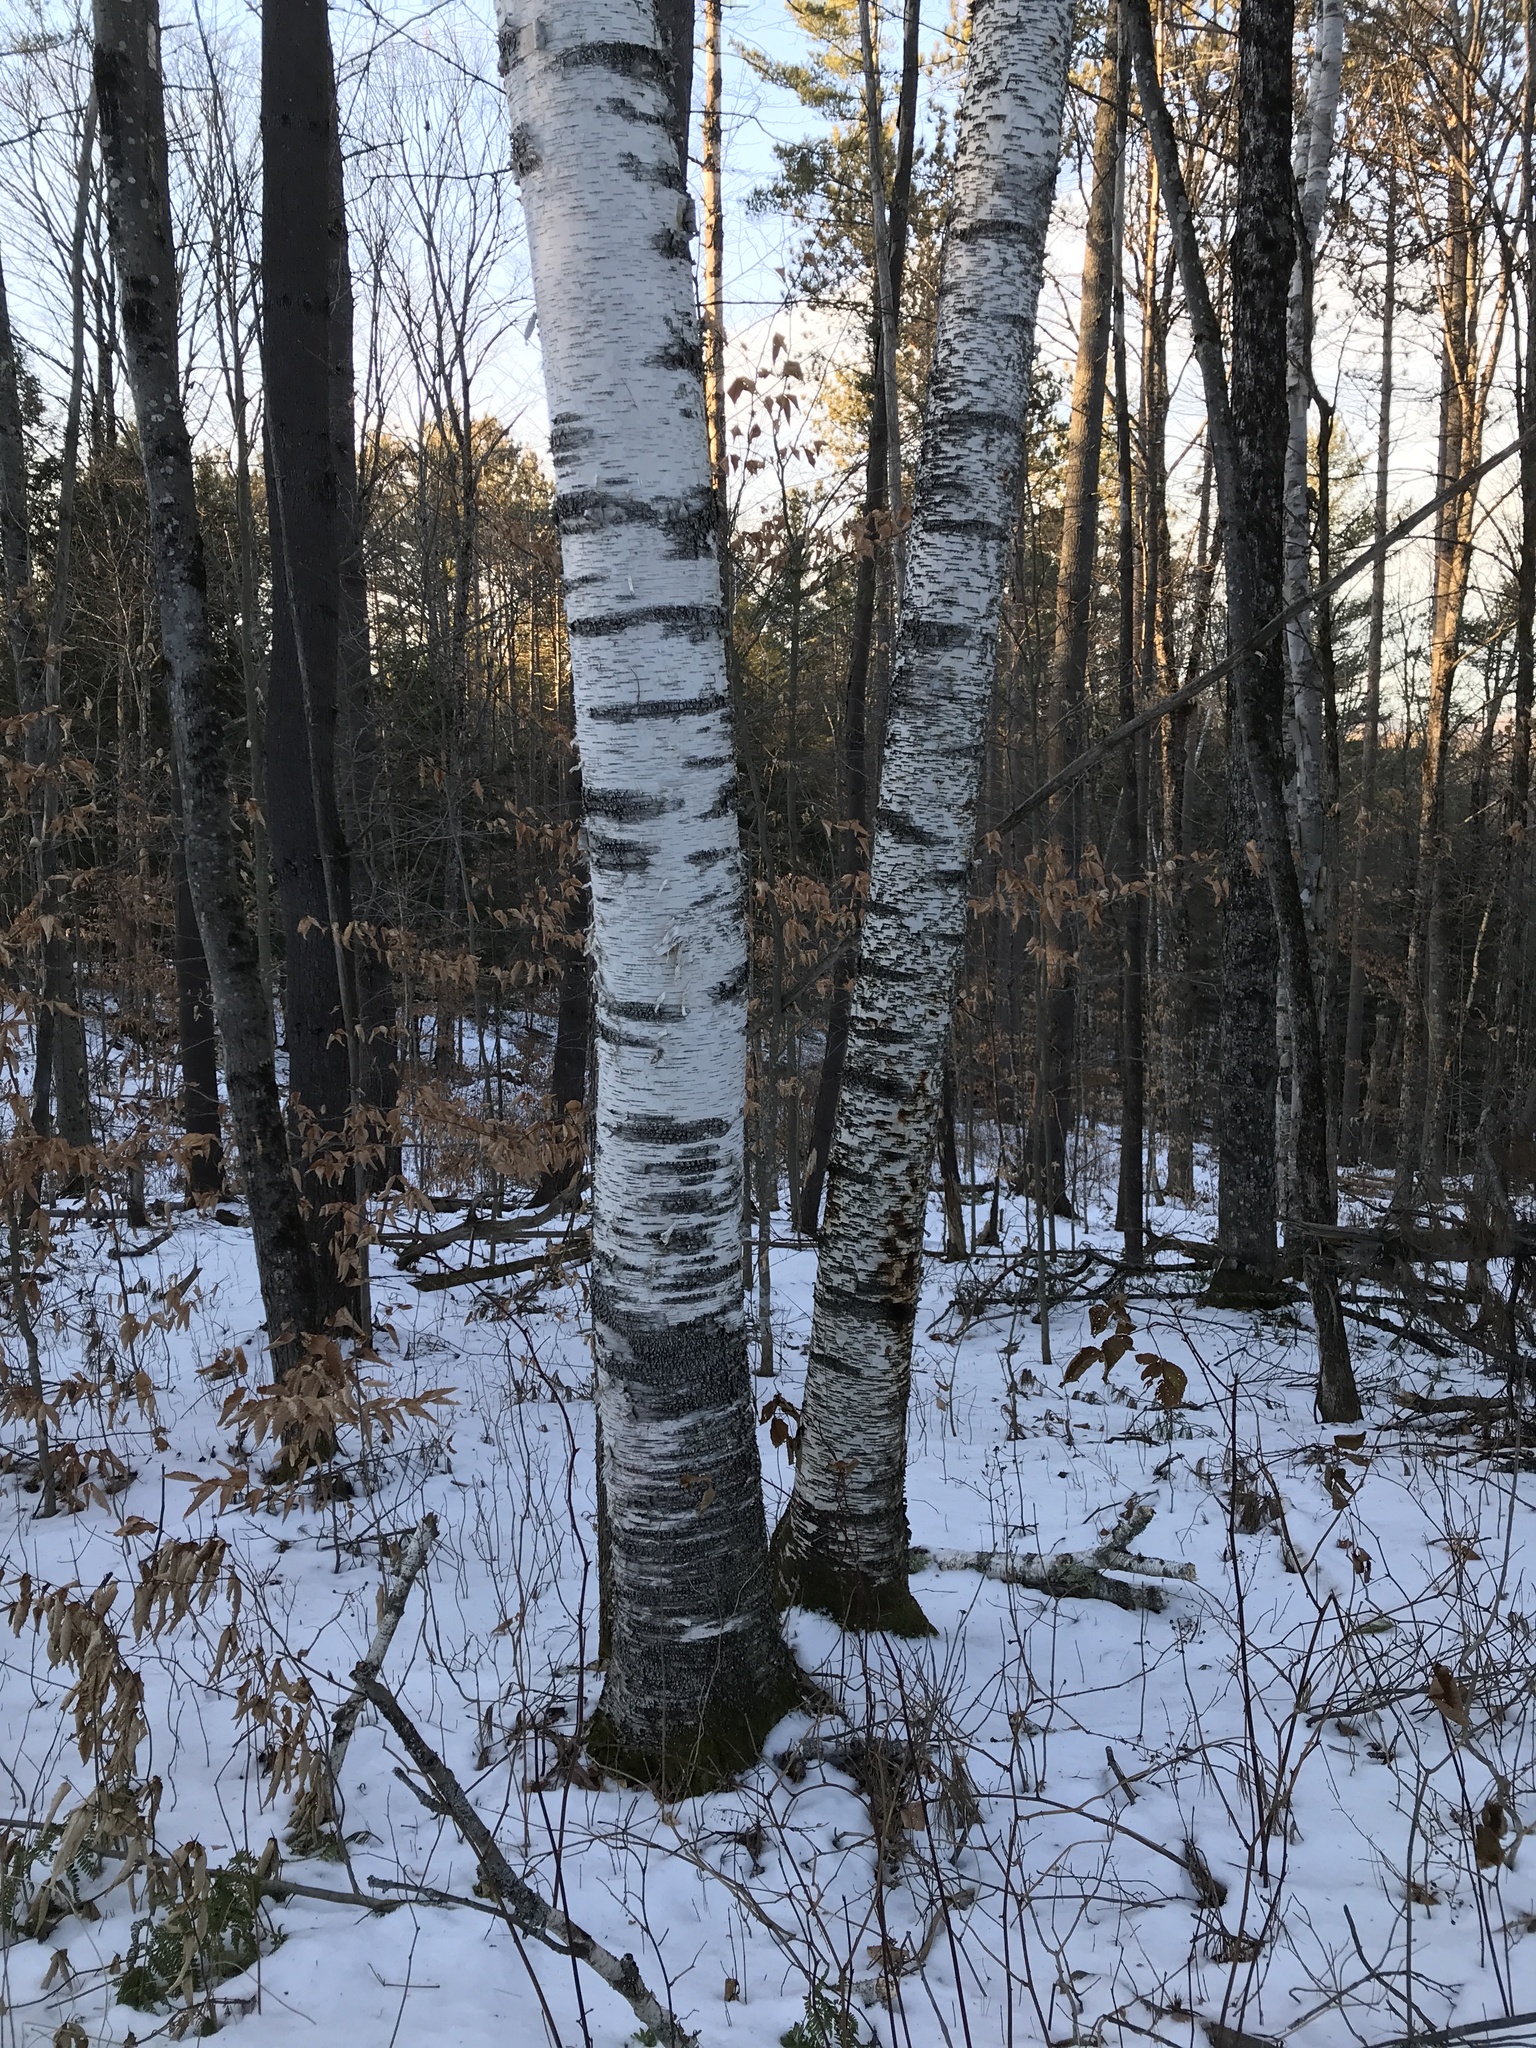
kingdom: Plantae
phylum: Tracheophyta
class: Magnoliopsida
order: Fagales
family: Betulaceae
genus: Betula
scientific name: Betula papyrifera
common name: Paper birch
